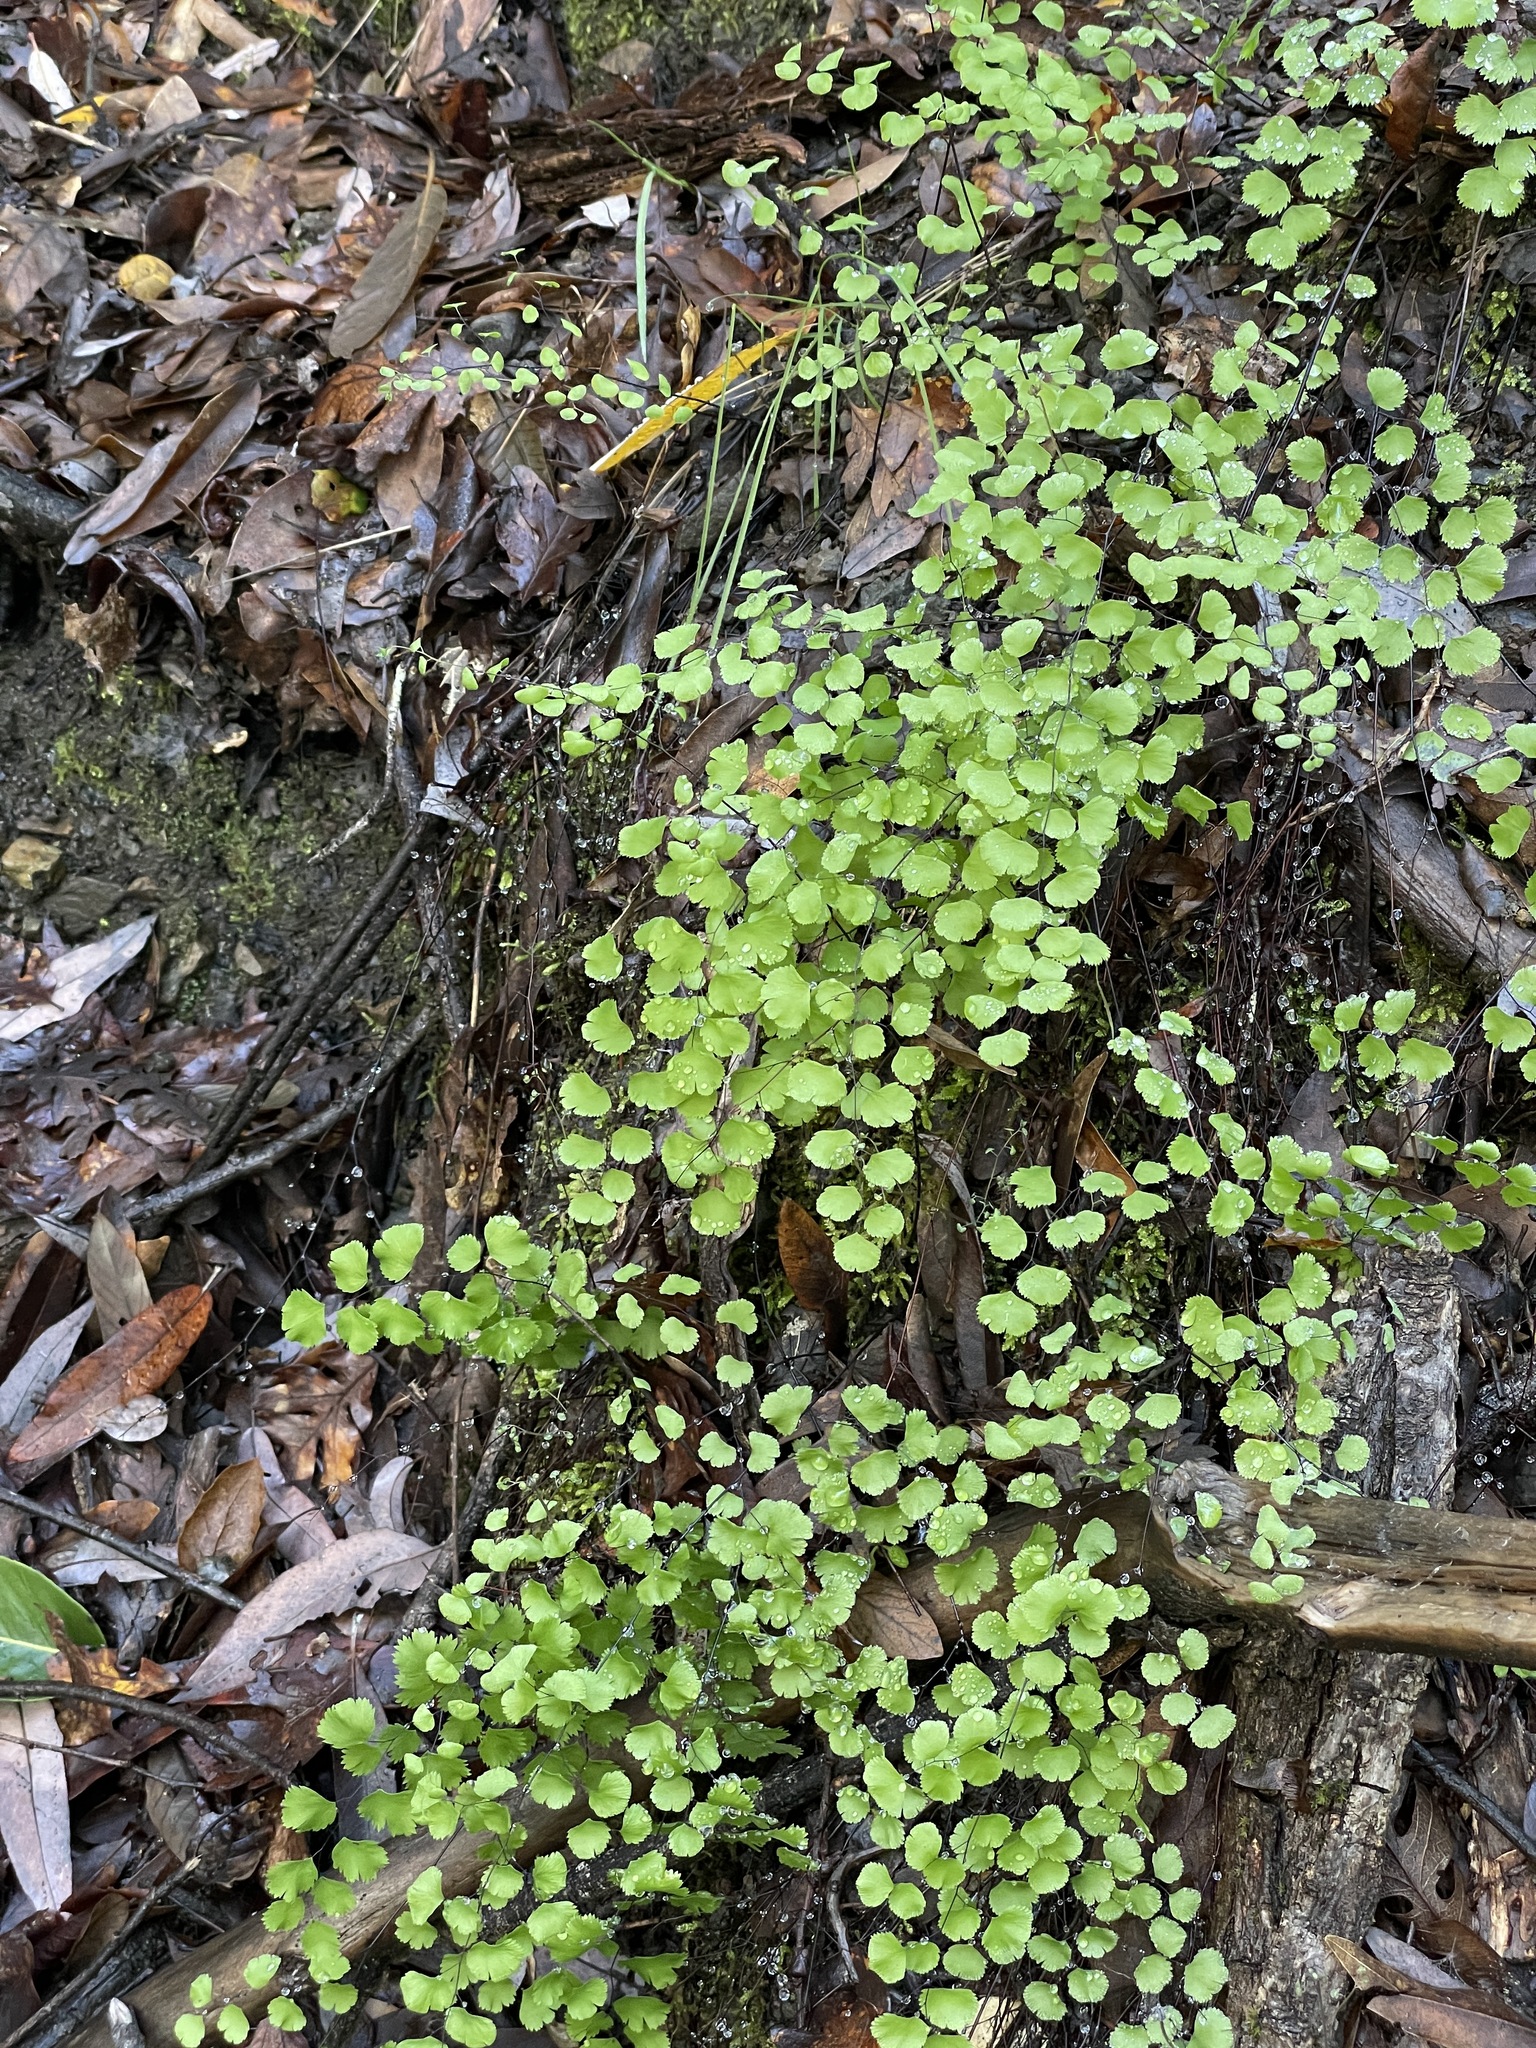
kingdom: Plantae
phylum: Tracheophyta
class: Polypodiopsida
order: Polypodiales
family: Pteridaceae
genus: Adiantum
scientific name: Adiantum jordanii
